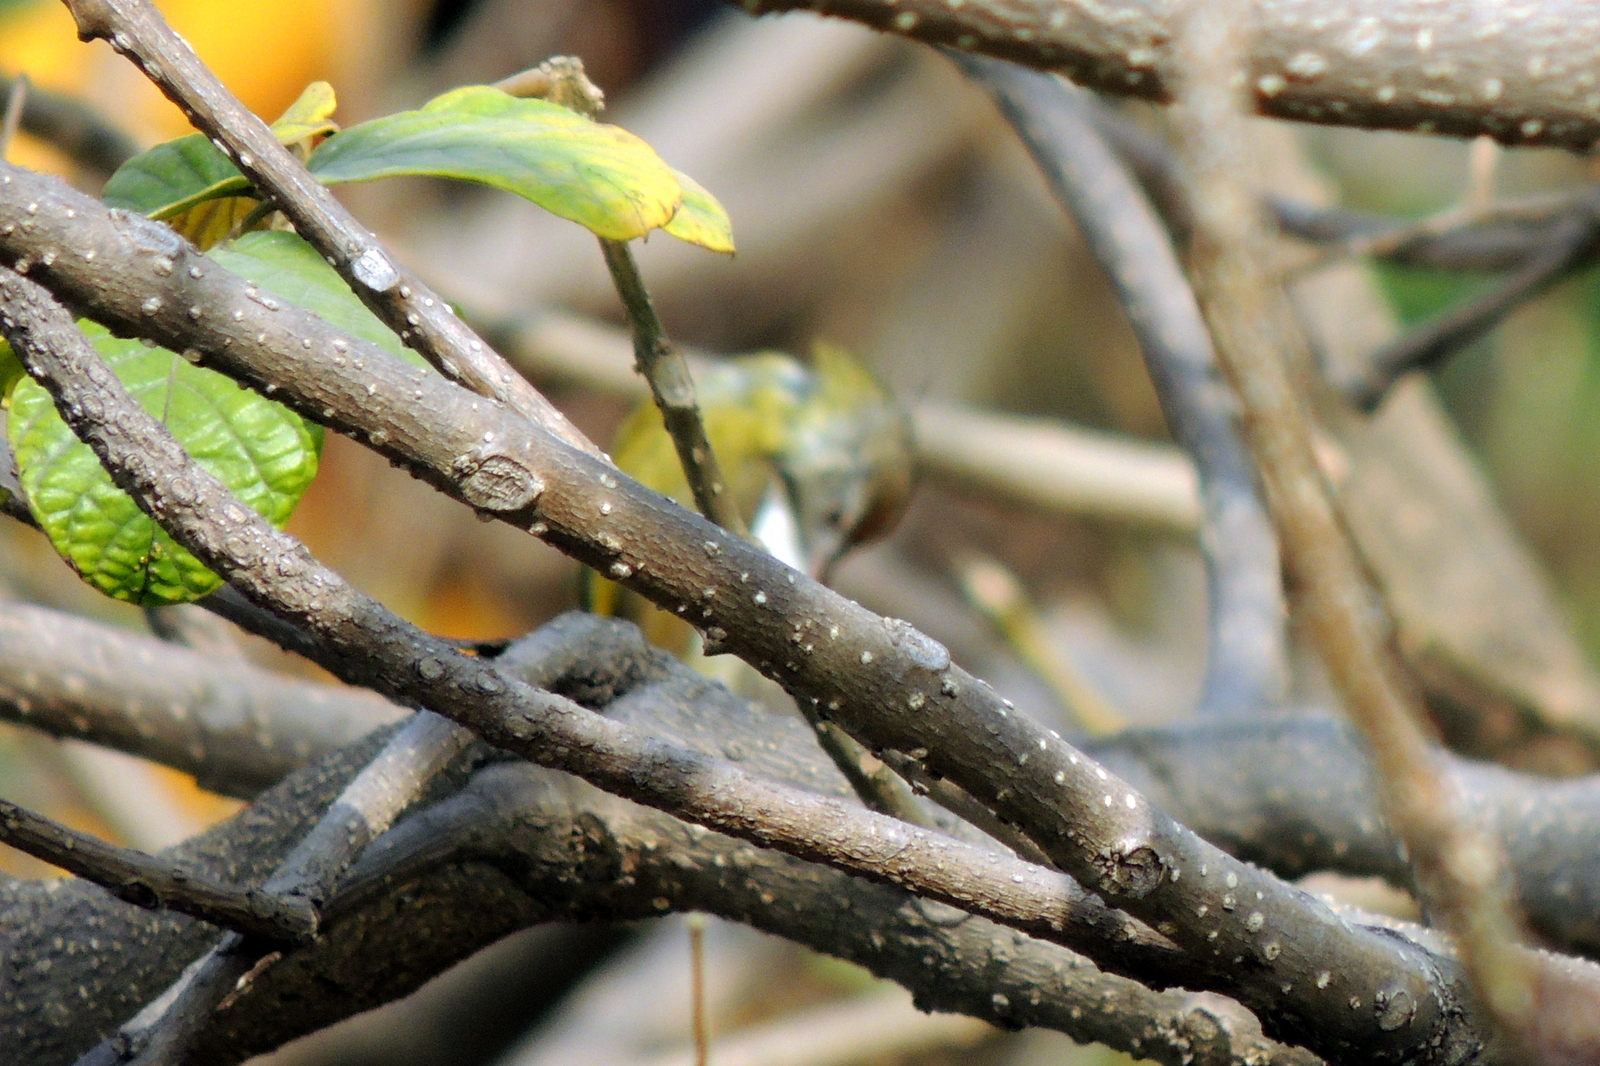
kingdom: Animalia
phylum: Chordata
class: Aves
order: Passeriformes
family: Cisticolidae
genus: Orthotomus
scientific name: Orthotomus sutorius
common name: Common tailorbird
